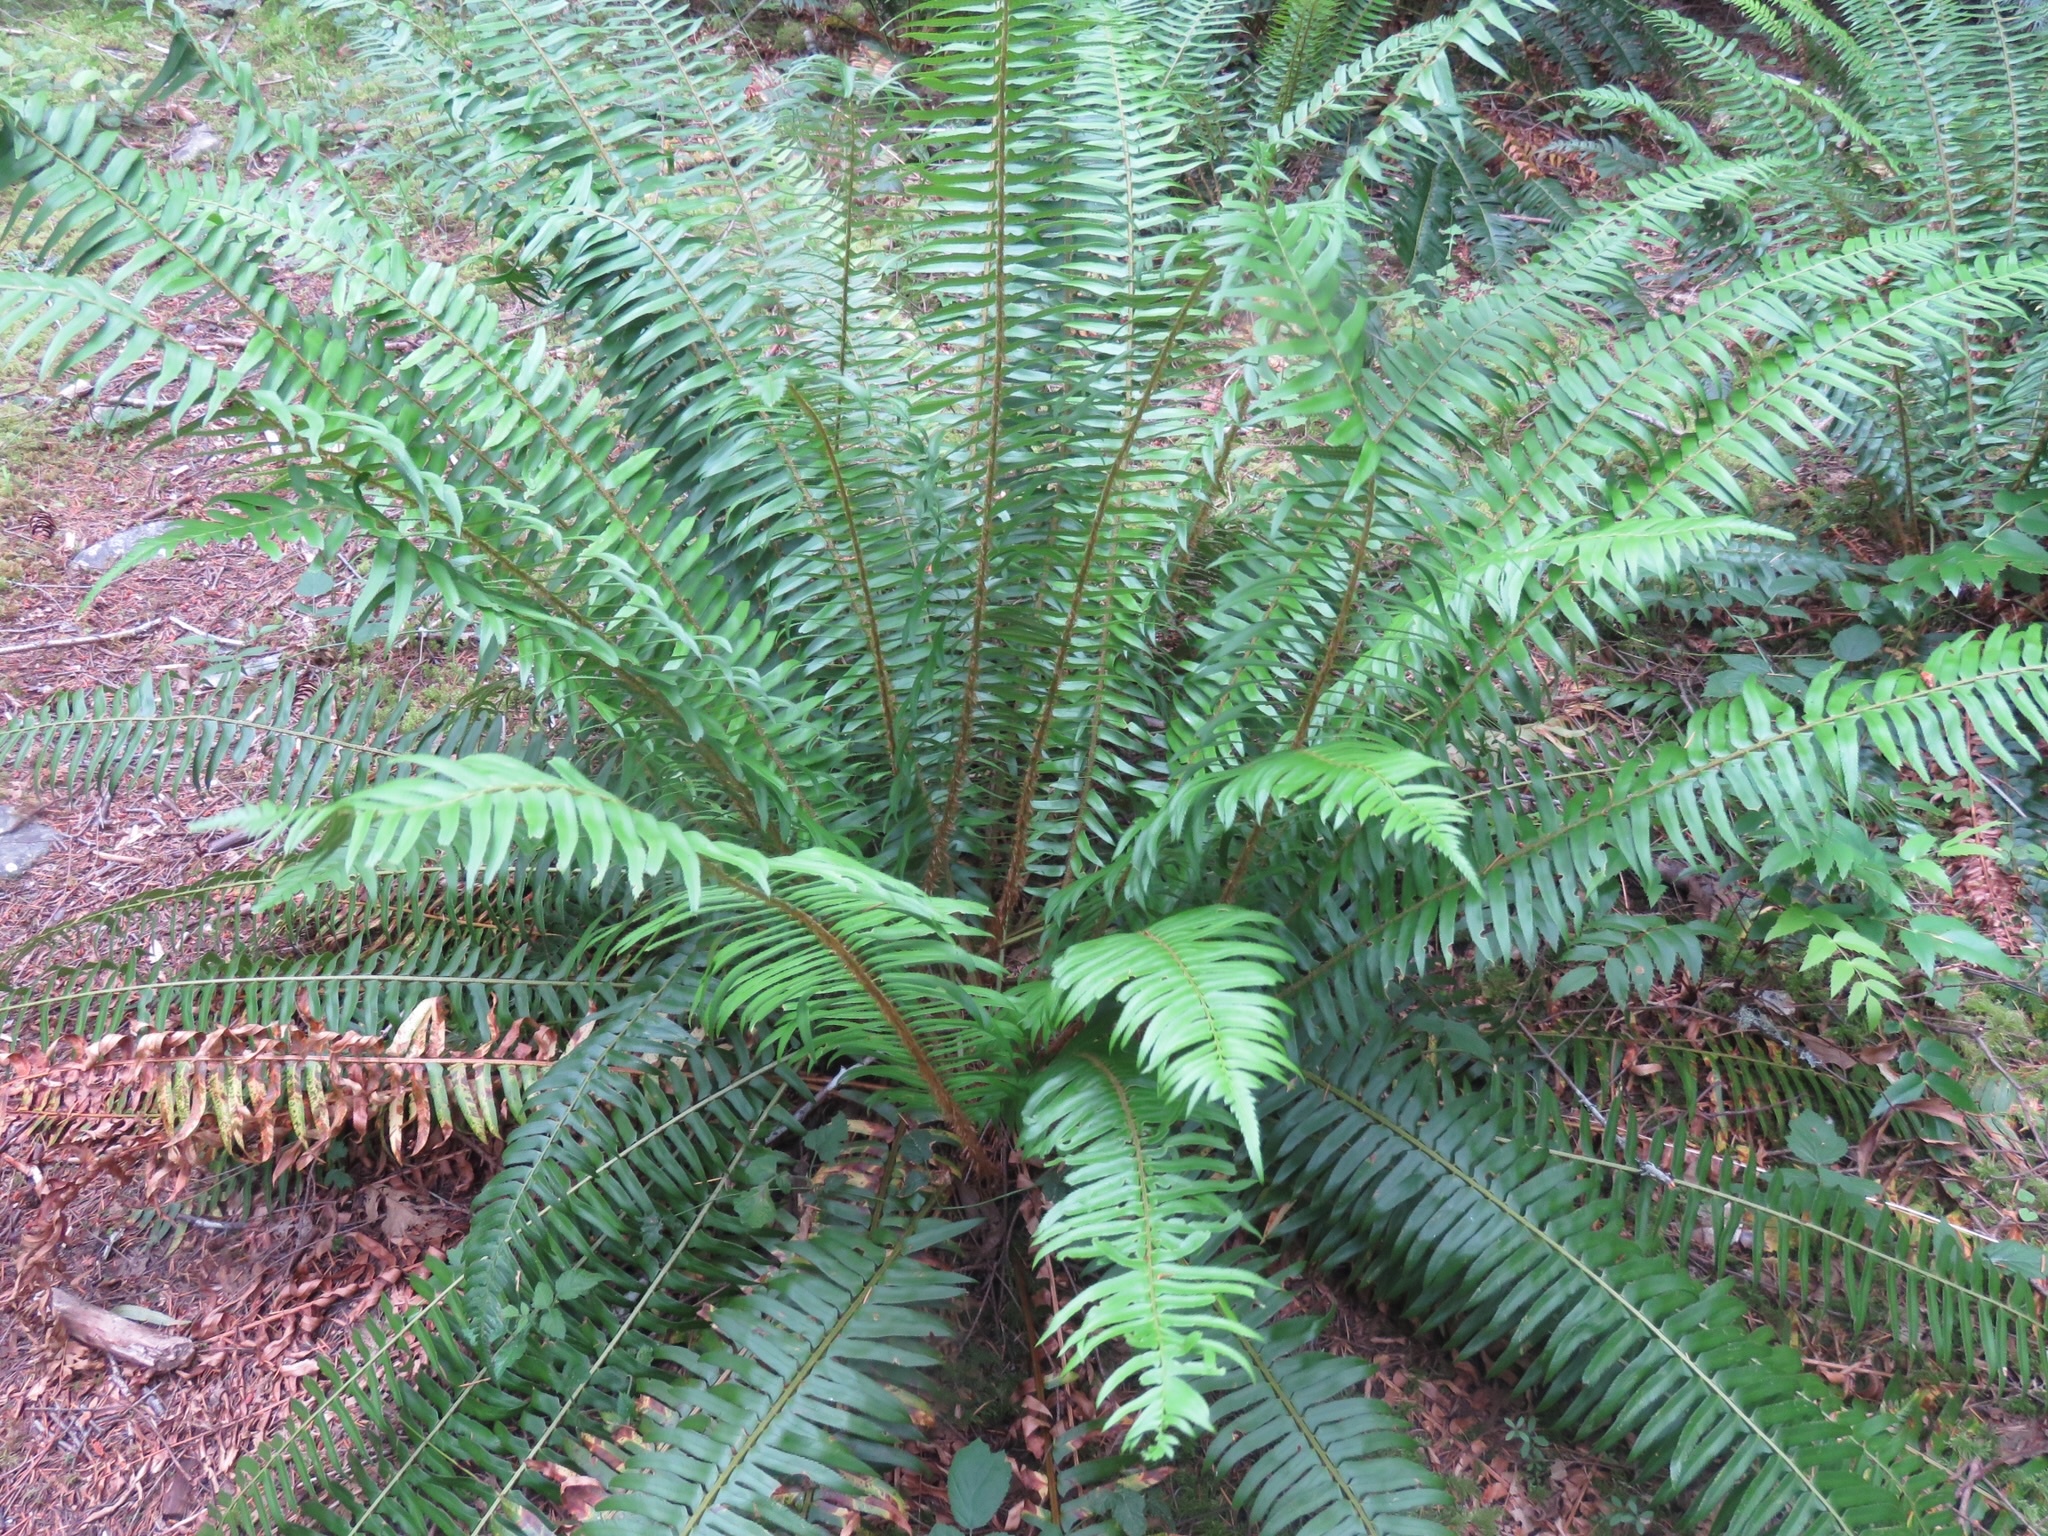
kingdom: Plantae
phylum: Tracheophyta
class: Polypodiopsida
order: Polypodiales
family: Dryopteridaceae
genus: Polystichum
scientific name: Polystichum munitum
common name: Western sword-fern
